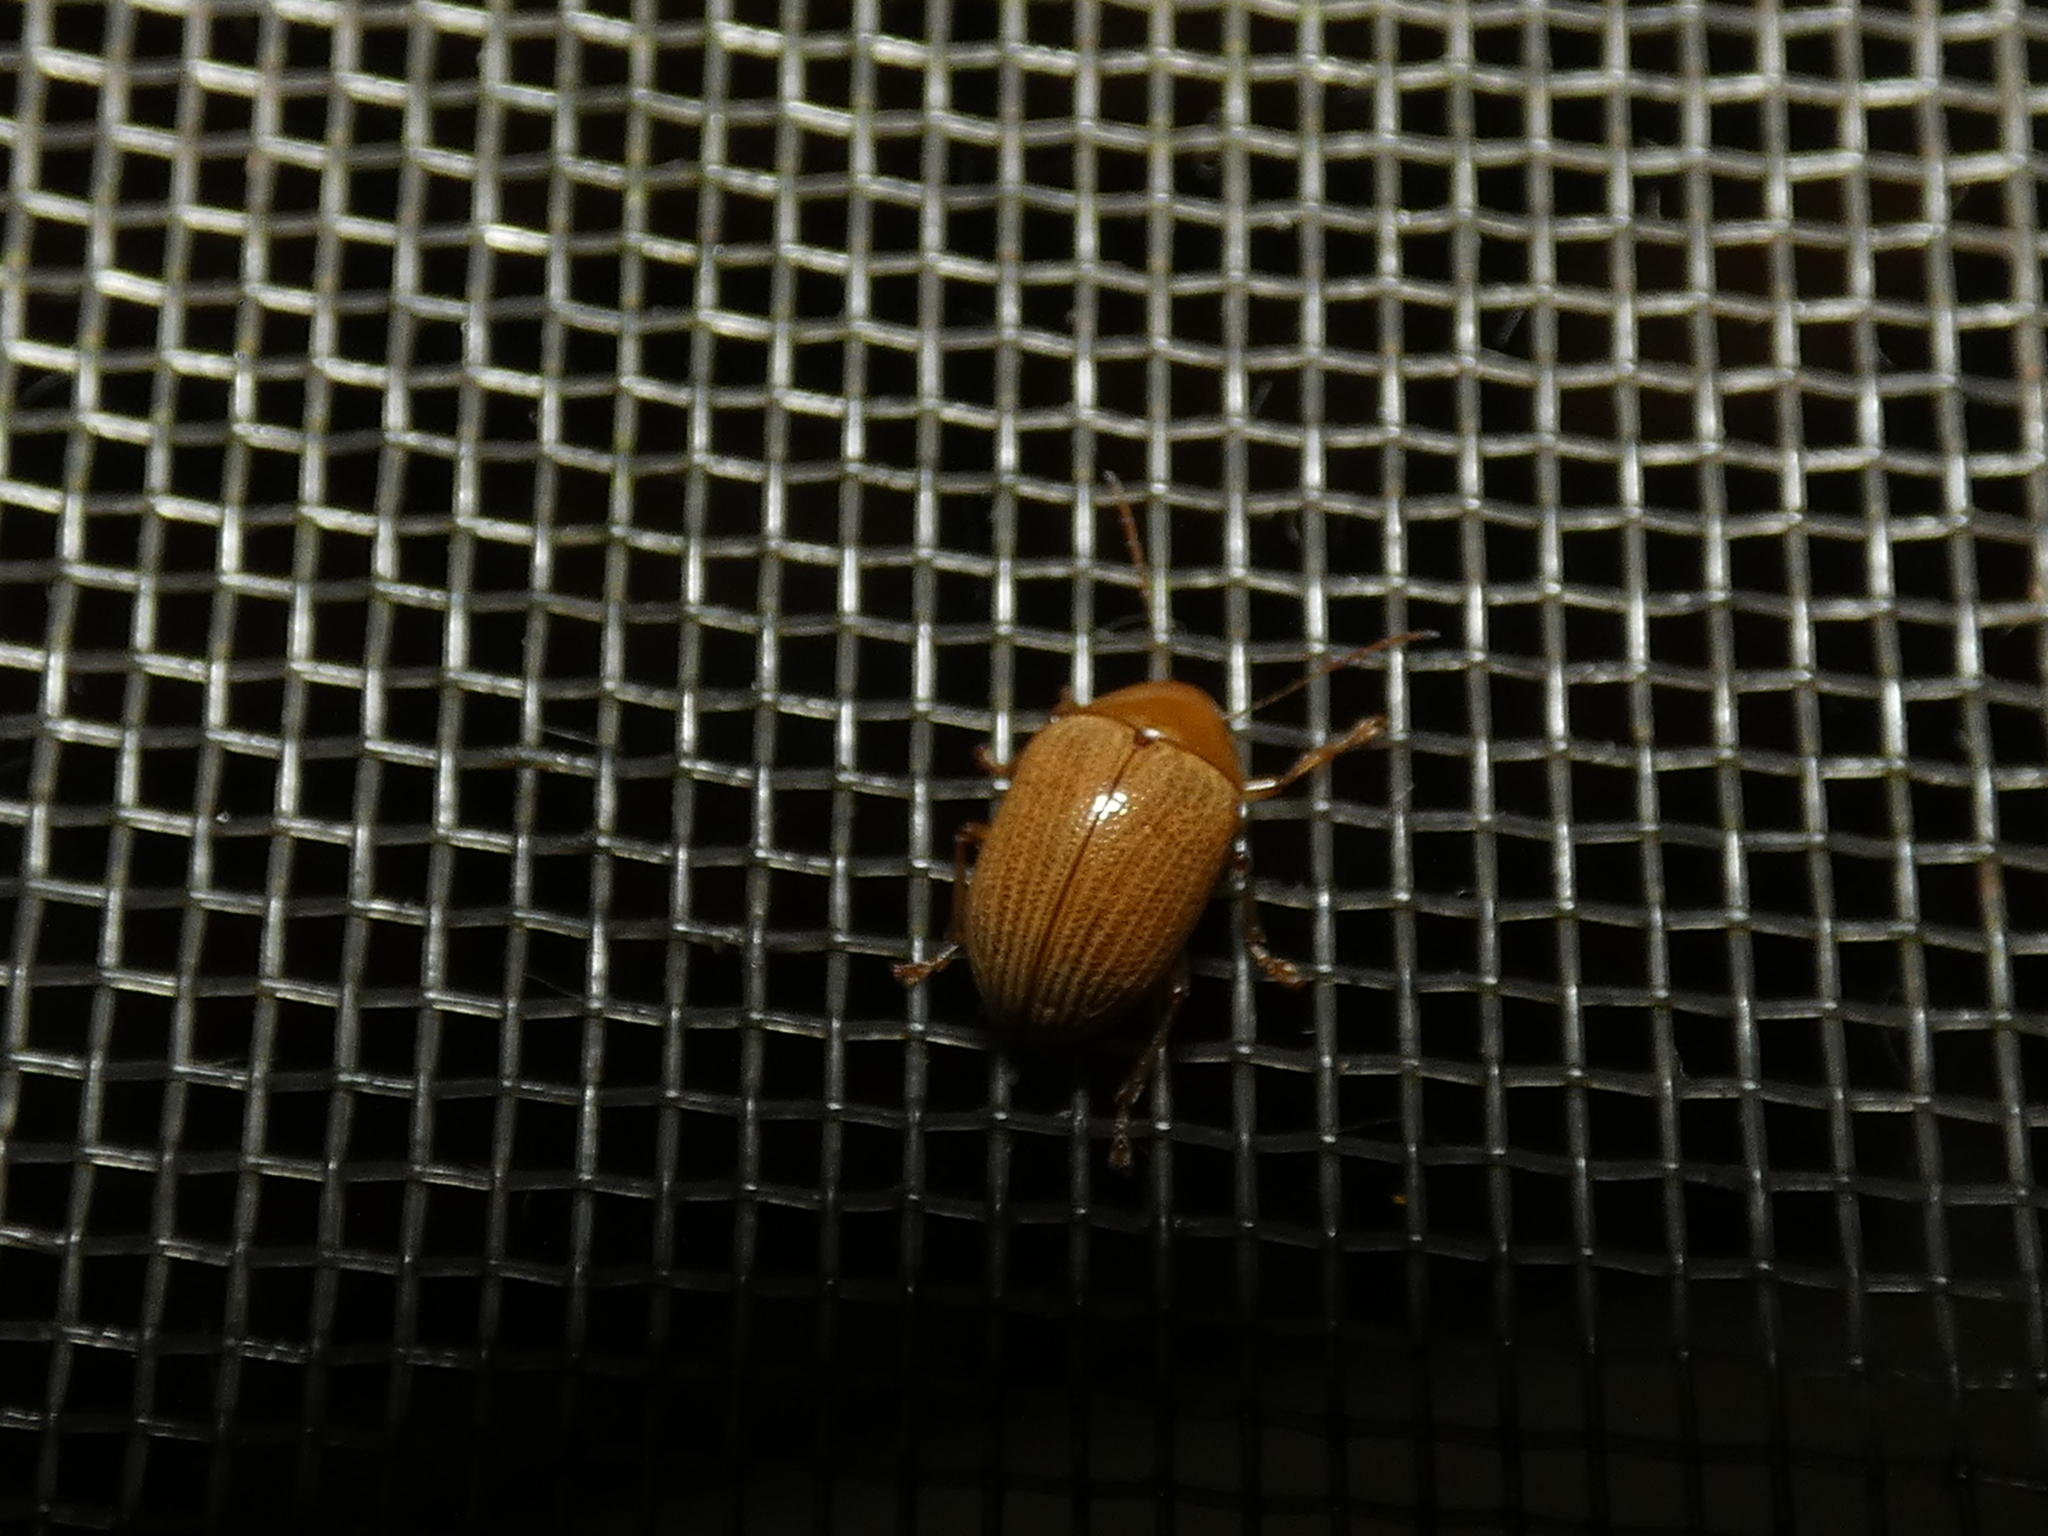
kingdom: Animalia
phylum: Arthropoda
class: Insecta
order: Coleoptera
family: Chrysomelidae
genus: Anisodera
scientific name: Anisodera ferruginea
